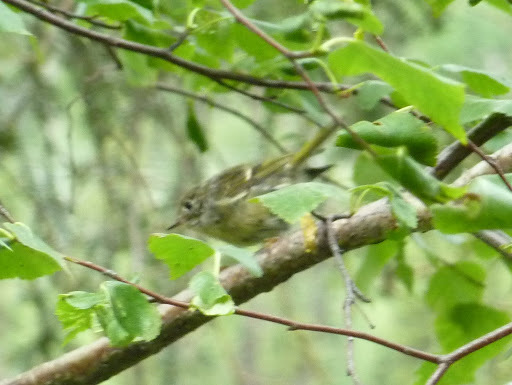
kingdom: Animalia
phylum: Chordata
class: Aves
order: Passeriformes
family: Regulidae
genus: Regulus
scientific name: Regulus calendula
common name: Ruby-crowned kinglet
